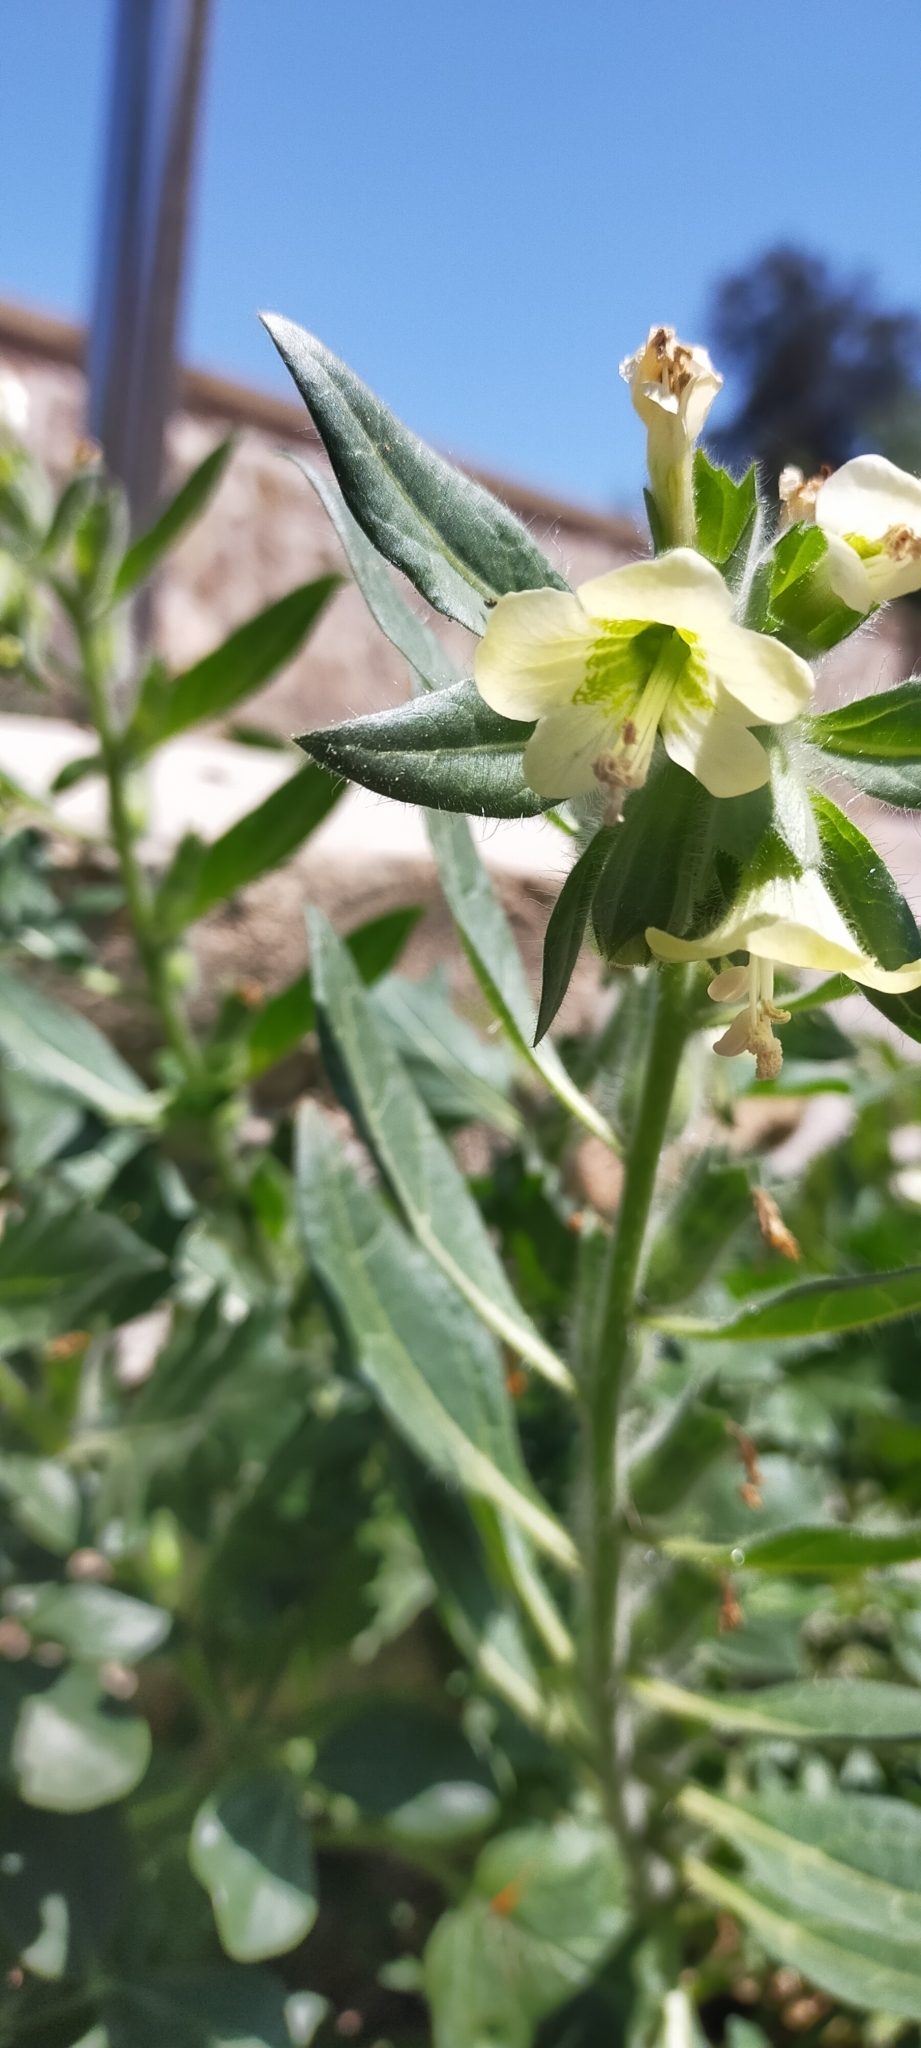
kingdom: Plantae
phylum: Tracheophyta
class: Magnoliopsida
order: Solanales
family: Solanaceae
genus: Hyoscyamus
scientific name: Hyoscyamus albus
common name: White henbane
